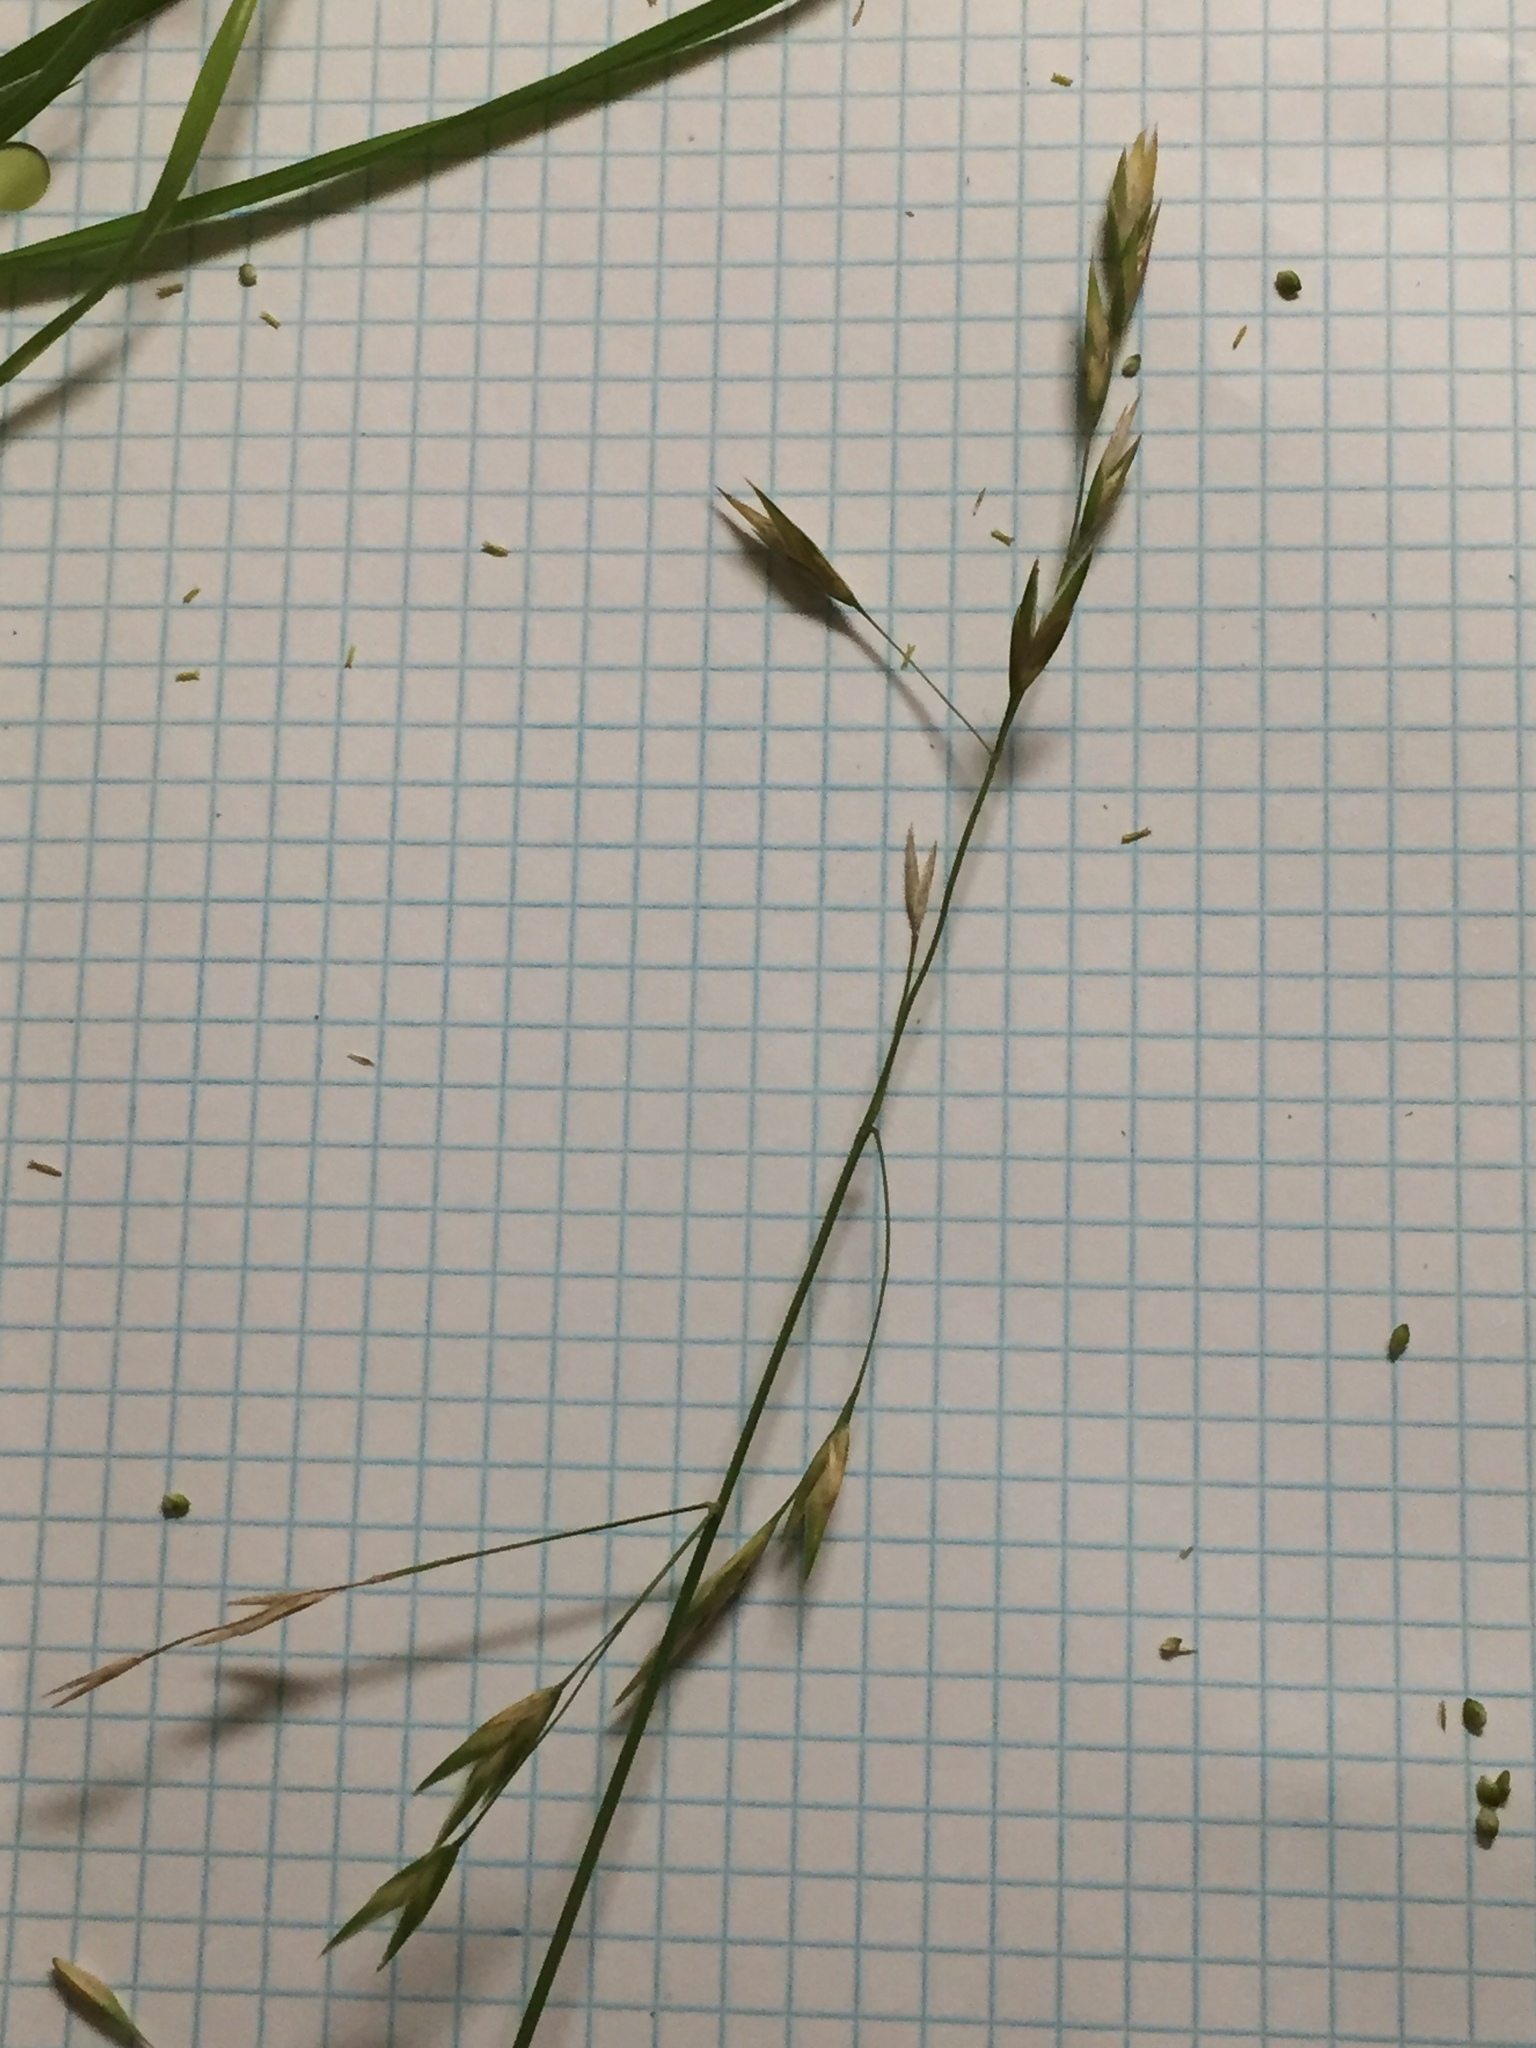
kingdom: Plantae
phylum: Tracheophyta
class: Liliopsida
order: Poales
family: Poaceae
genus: Bromus
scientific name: Bromus catharticus
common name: Rescuegrass
